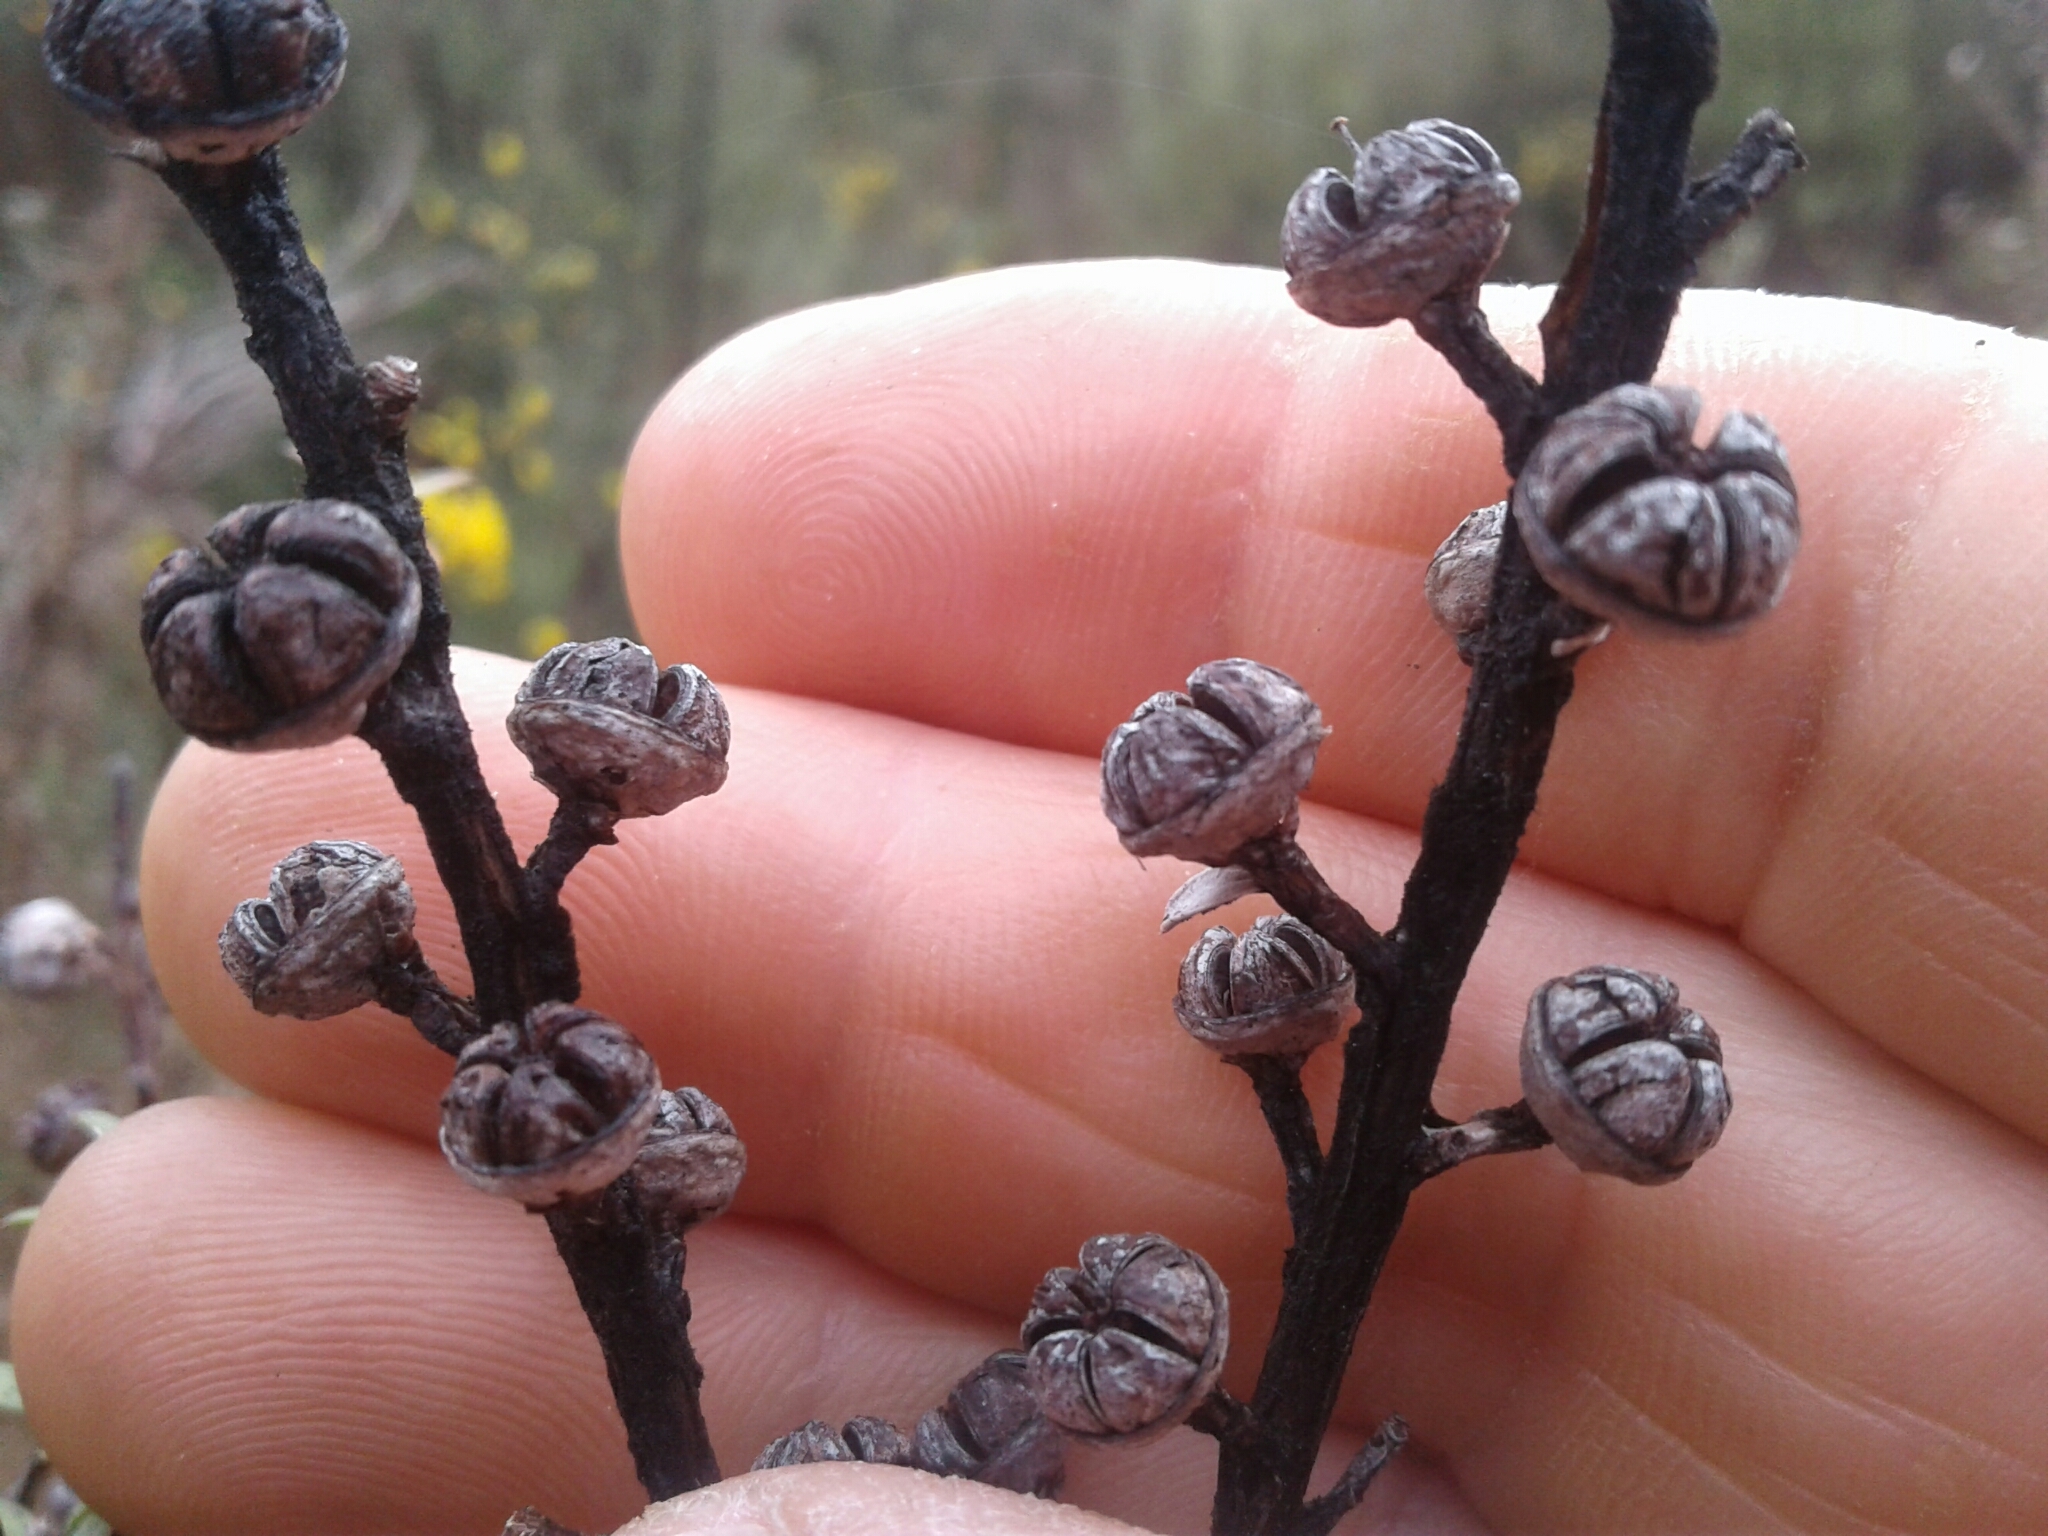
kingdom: Plantae
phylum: Tracheophyta
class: Magnoliopsida
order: Myrtales
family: Myrtaceae
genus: Leptospermum
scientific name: Leptospermum scoparium
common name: Broom tea-tree
